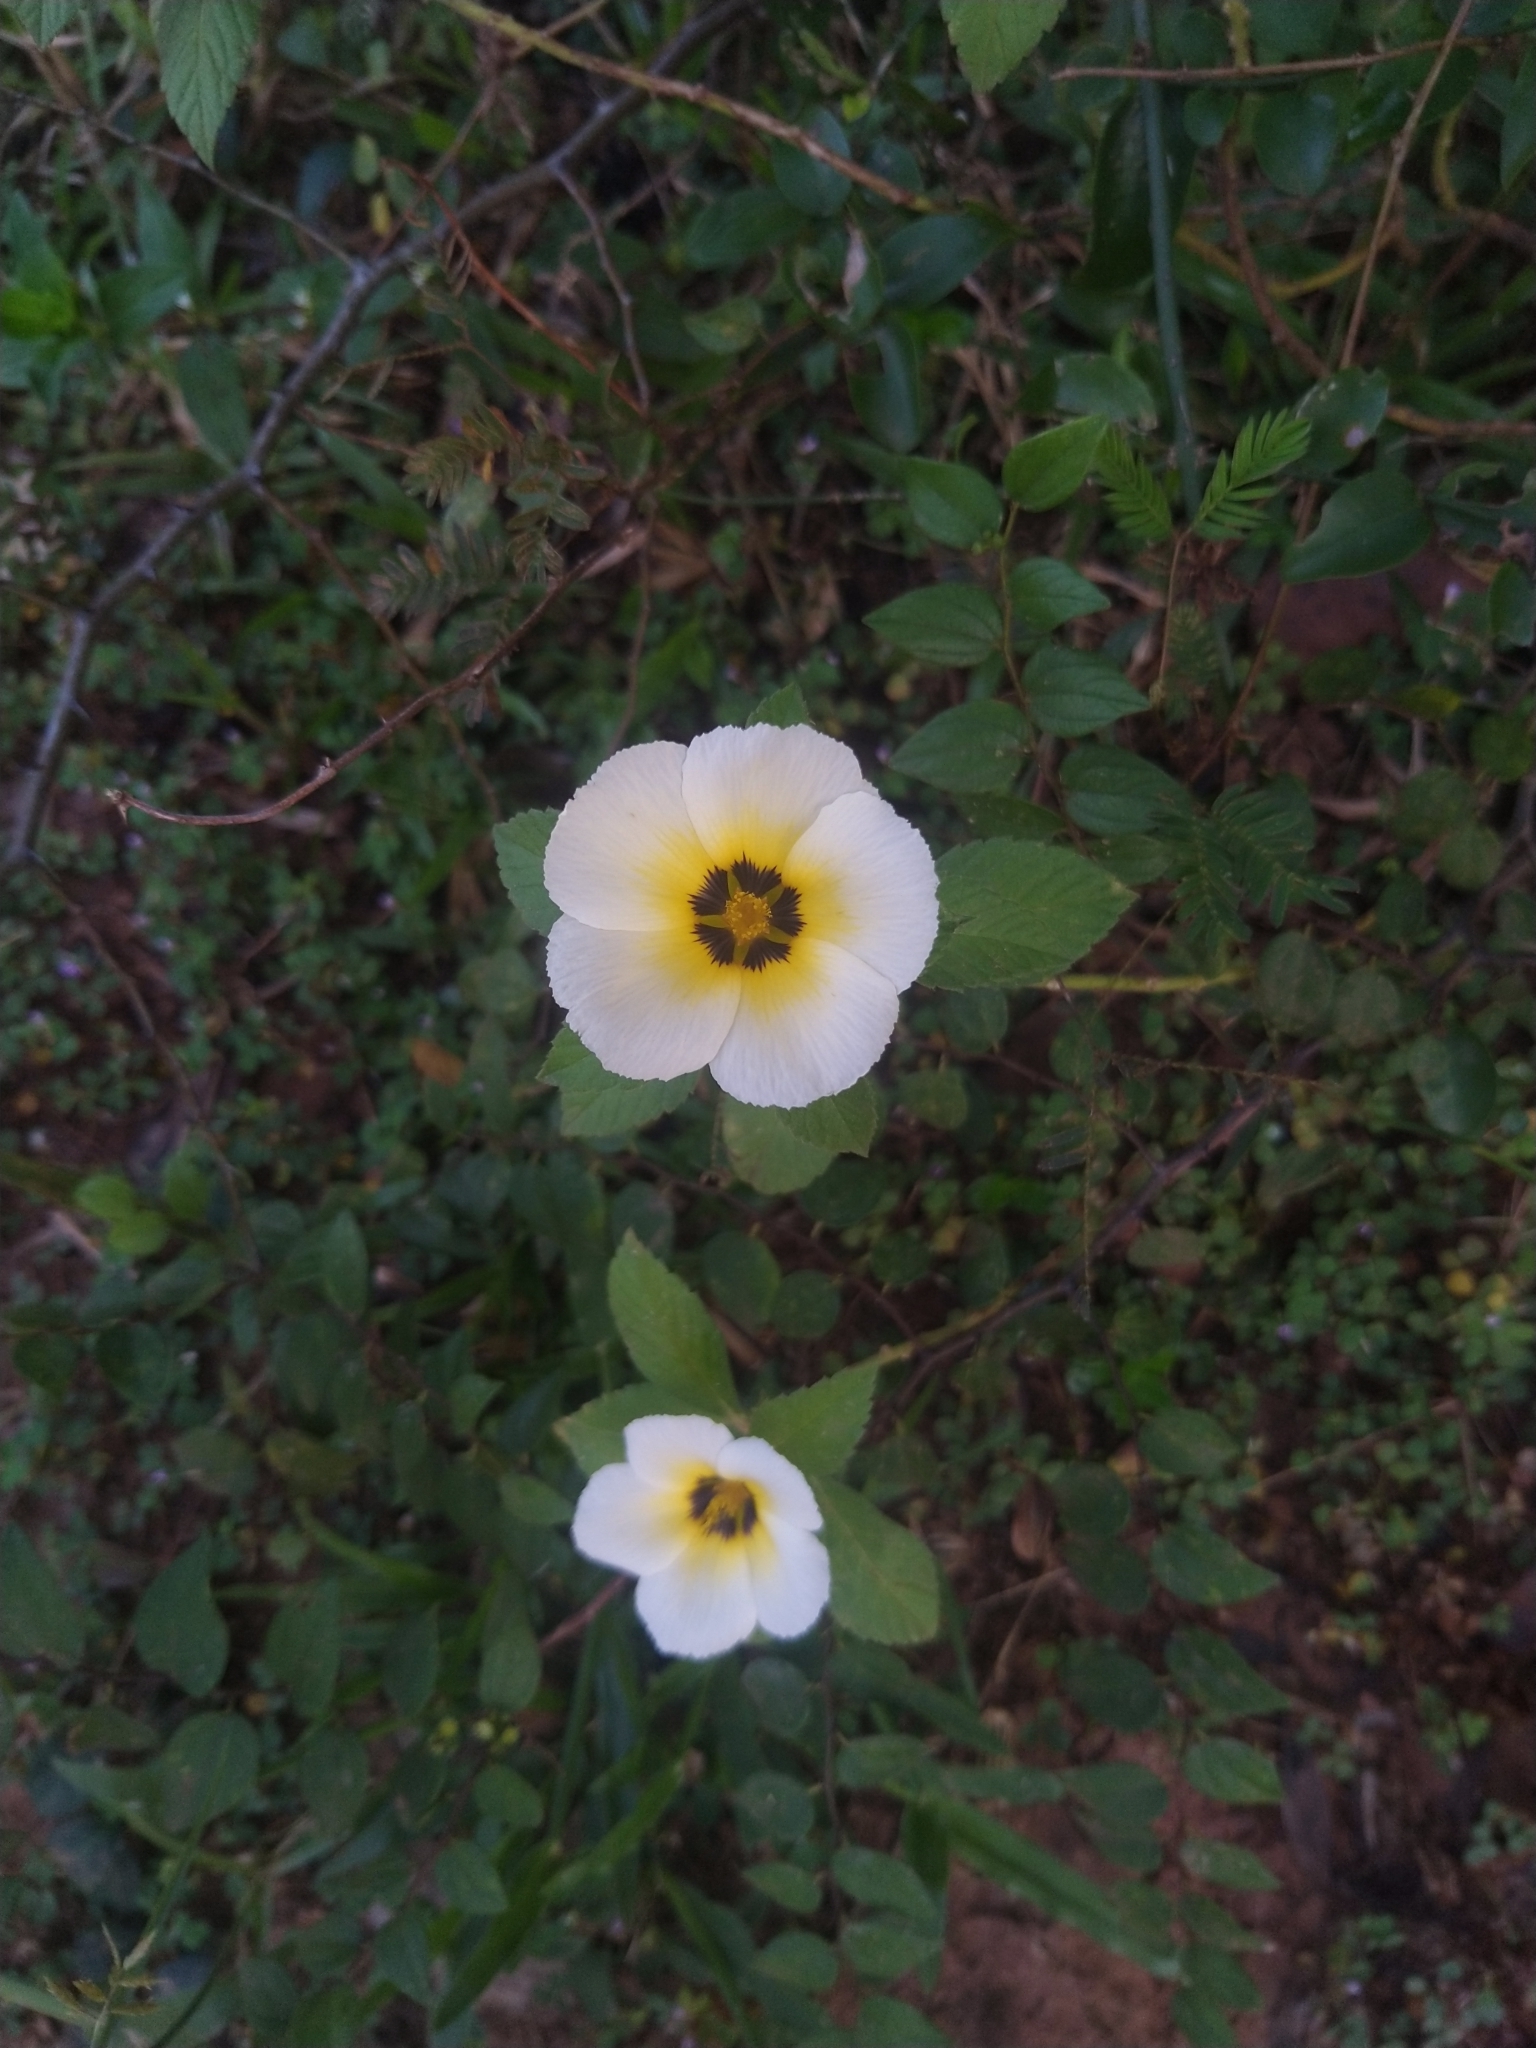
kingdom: Plantae
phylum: Tracheophyta
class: Magnoliopsida
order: Malpighiales
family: Turneraceae
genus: Turnera
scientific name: Turnera subulata
